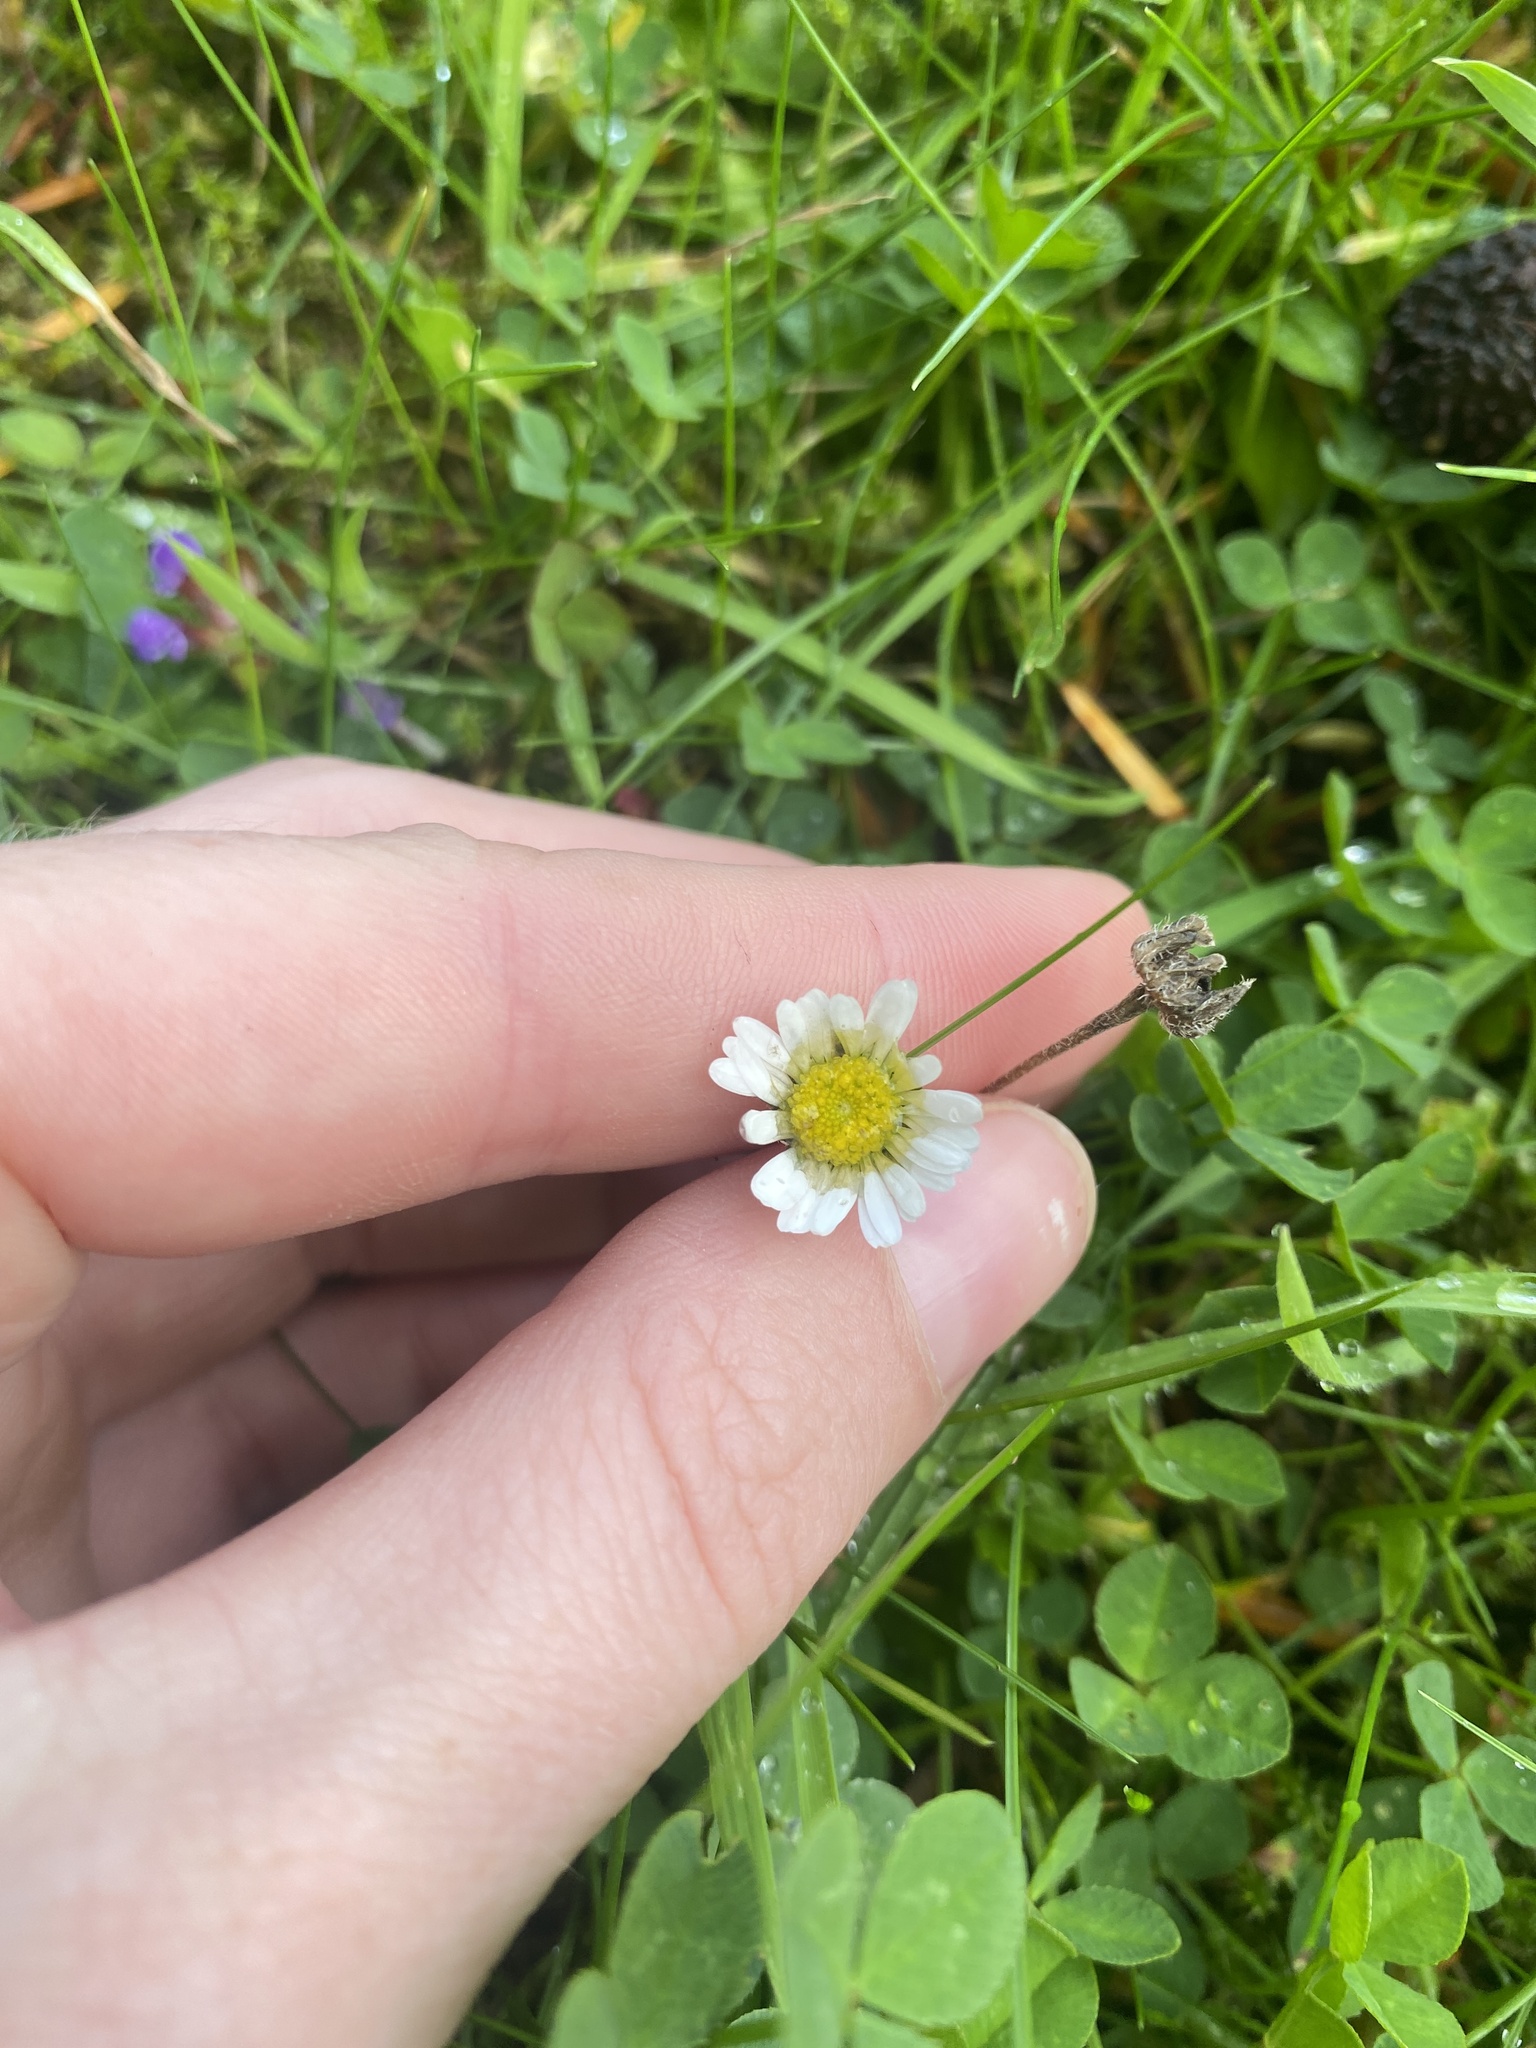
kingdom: Plantae
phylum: Tracheophyta
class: Magnoliopsida
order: Asterales
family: Asteraceae
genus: Bellis
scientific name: Bellis perennis
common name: Lawndaisy
